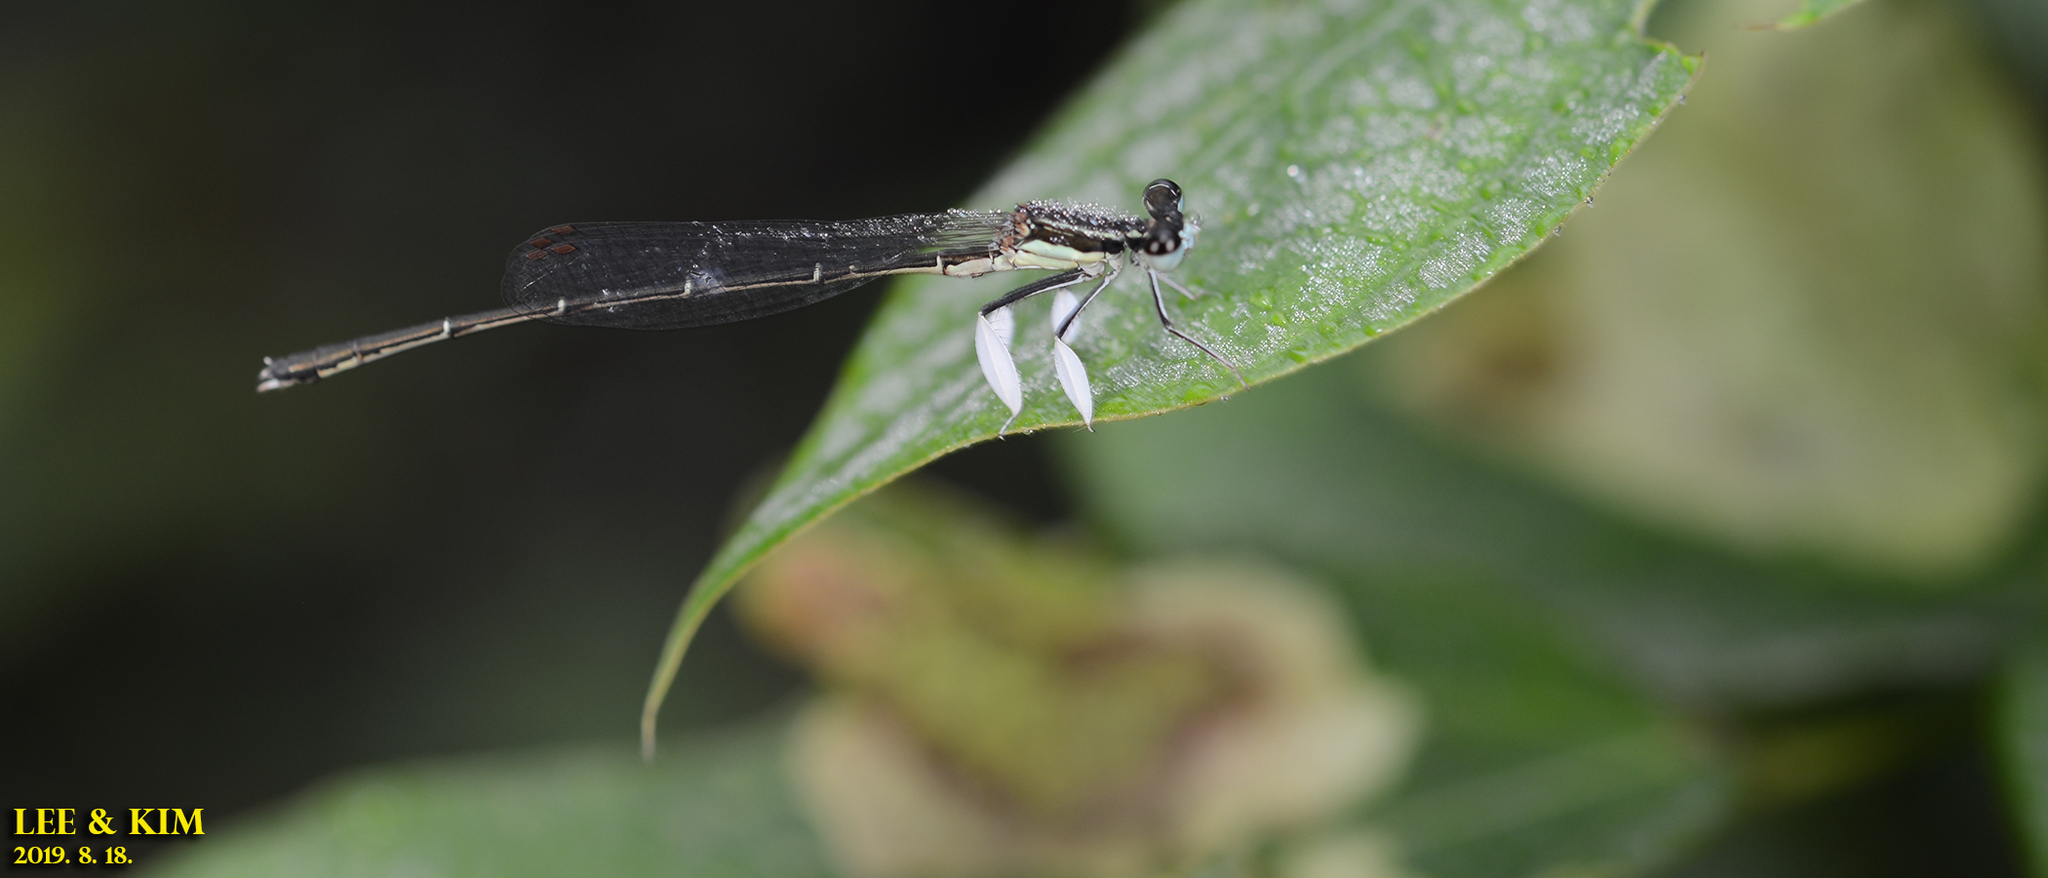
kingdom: Animalia
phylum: Arthropoda
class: Insecta
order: Odonata
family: Platycnemididae
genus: Platycnemis
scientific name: Platycnemis phyllopoda
